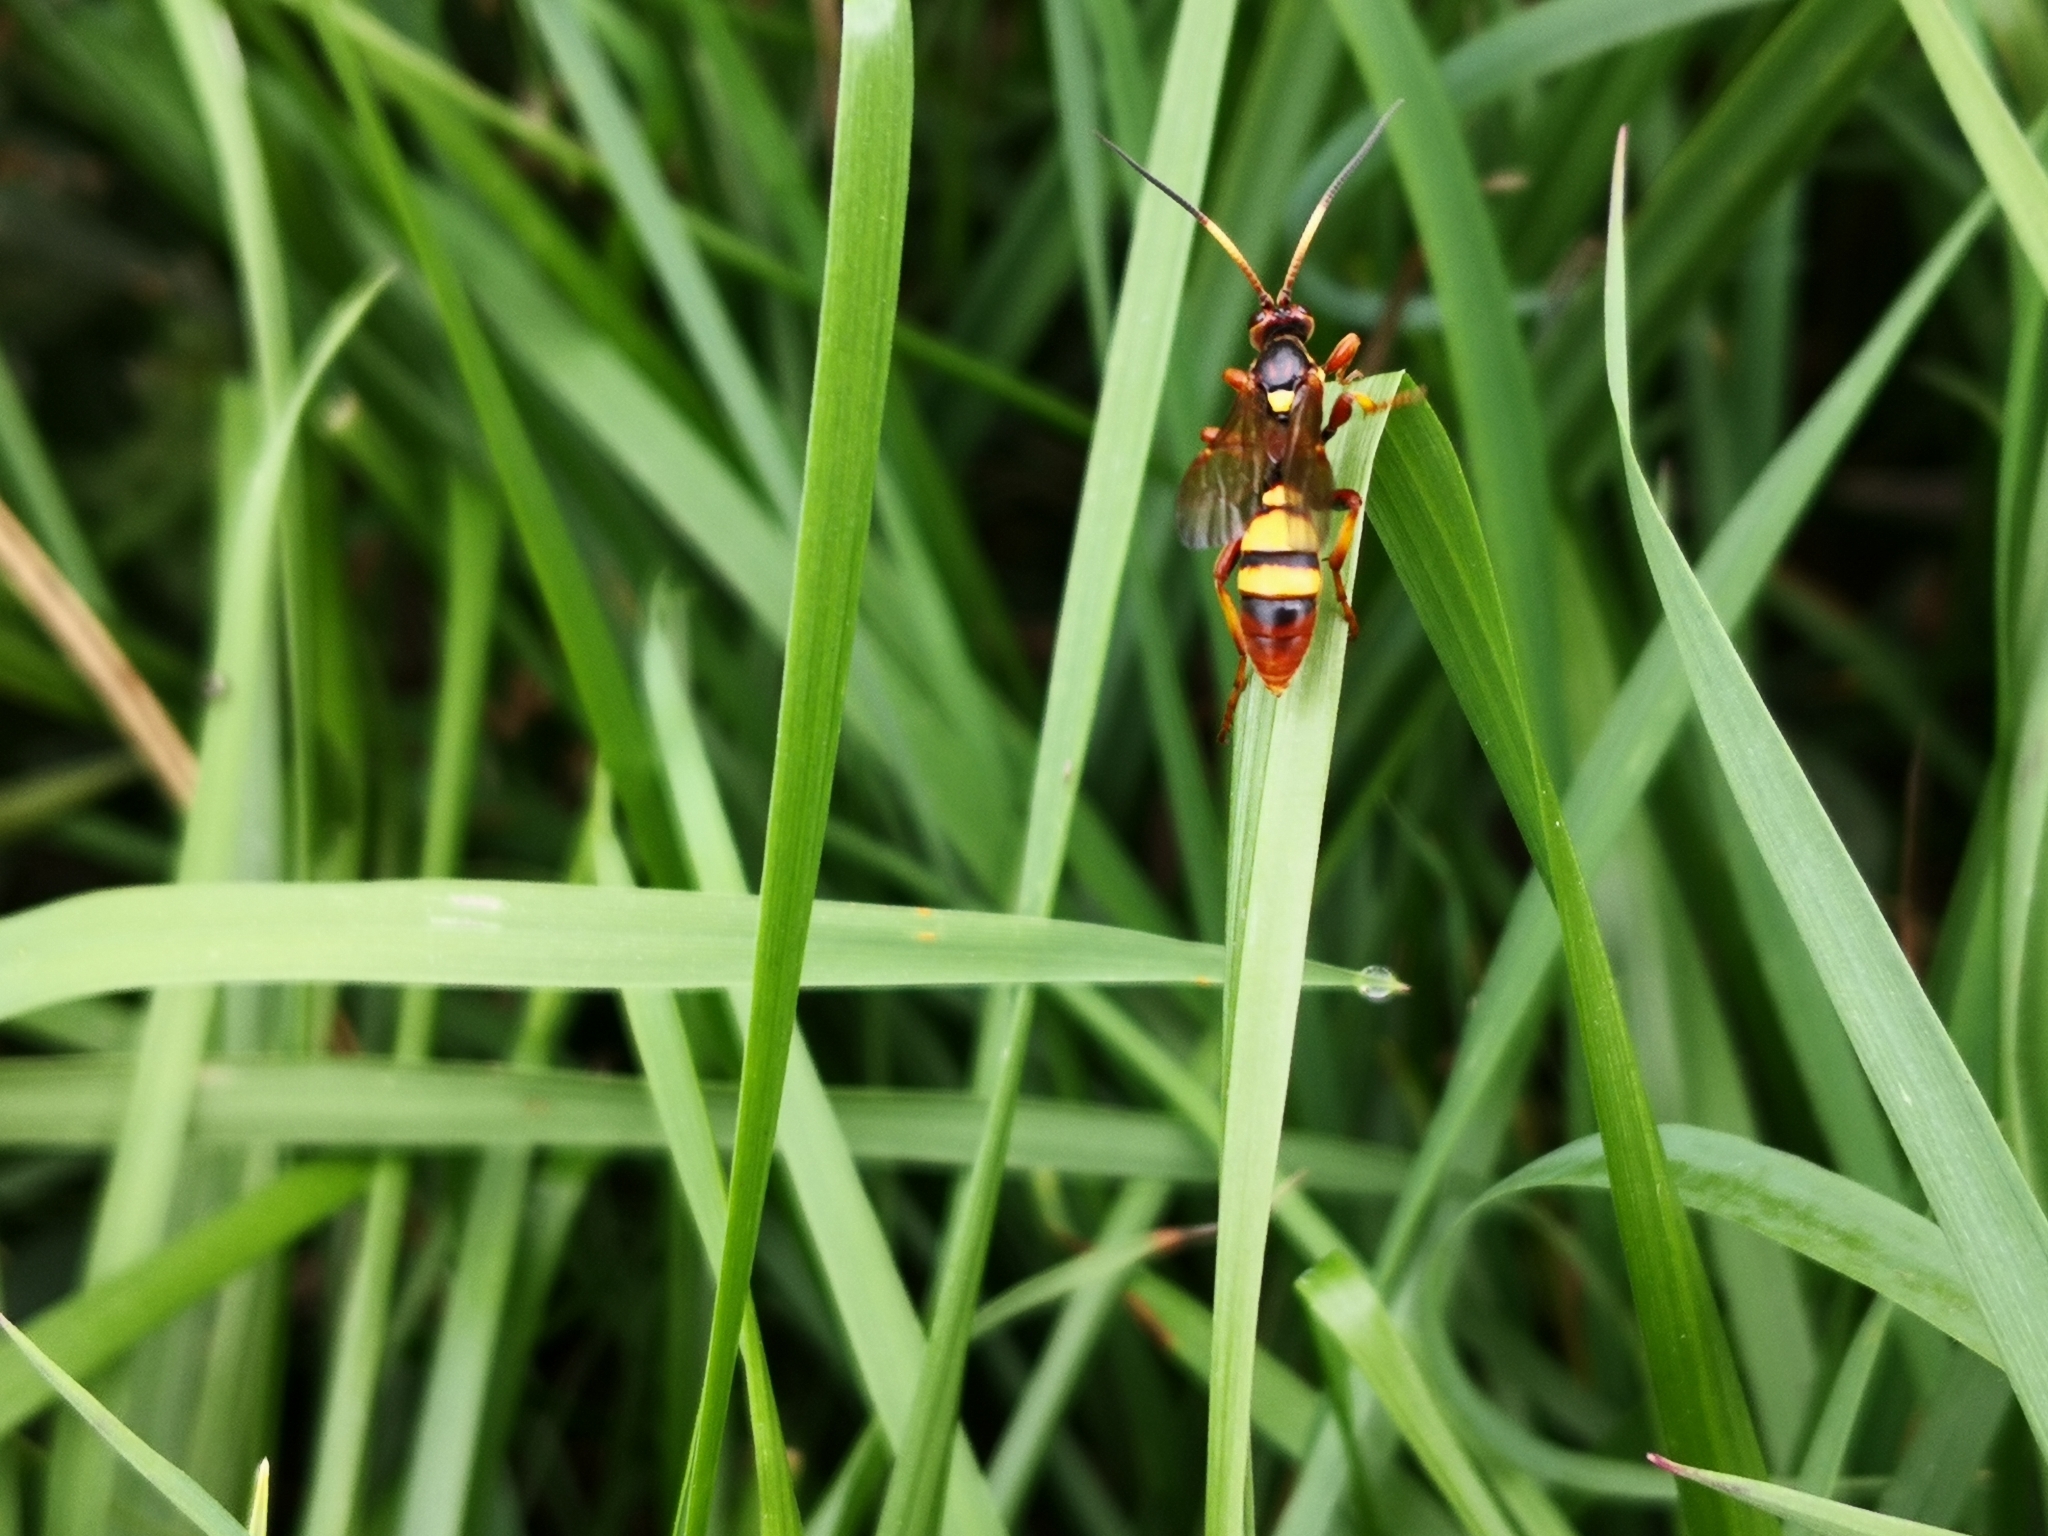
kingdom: Animalia
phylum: Arthropoda
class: Insecta
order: Hymenoptera
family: Ichneumonidae
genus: Eutanyacra
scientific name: Eutanyacra crispatoria
